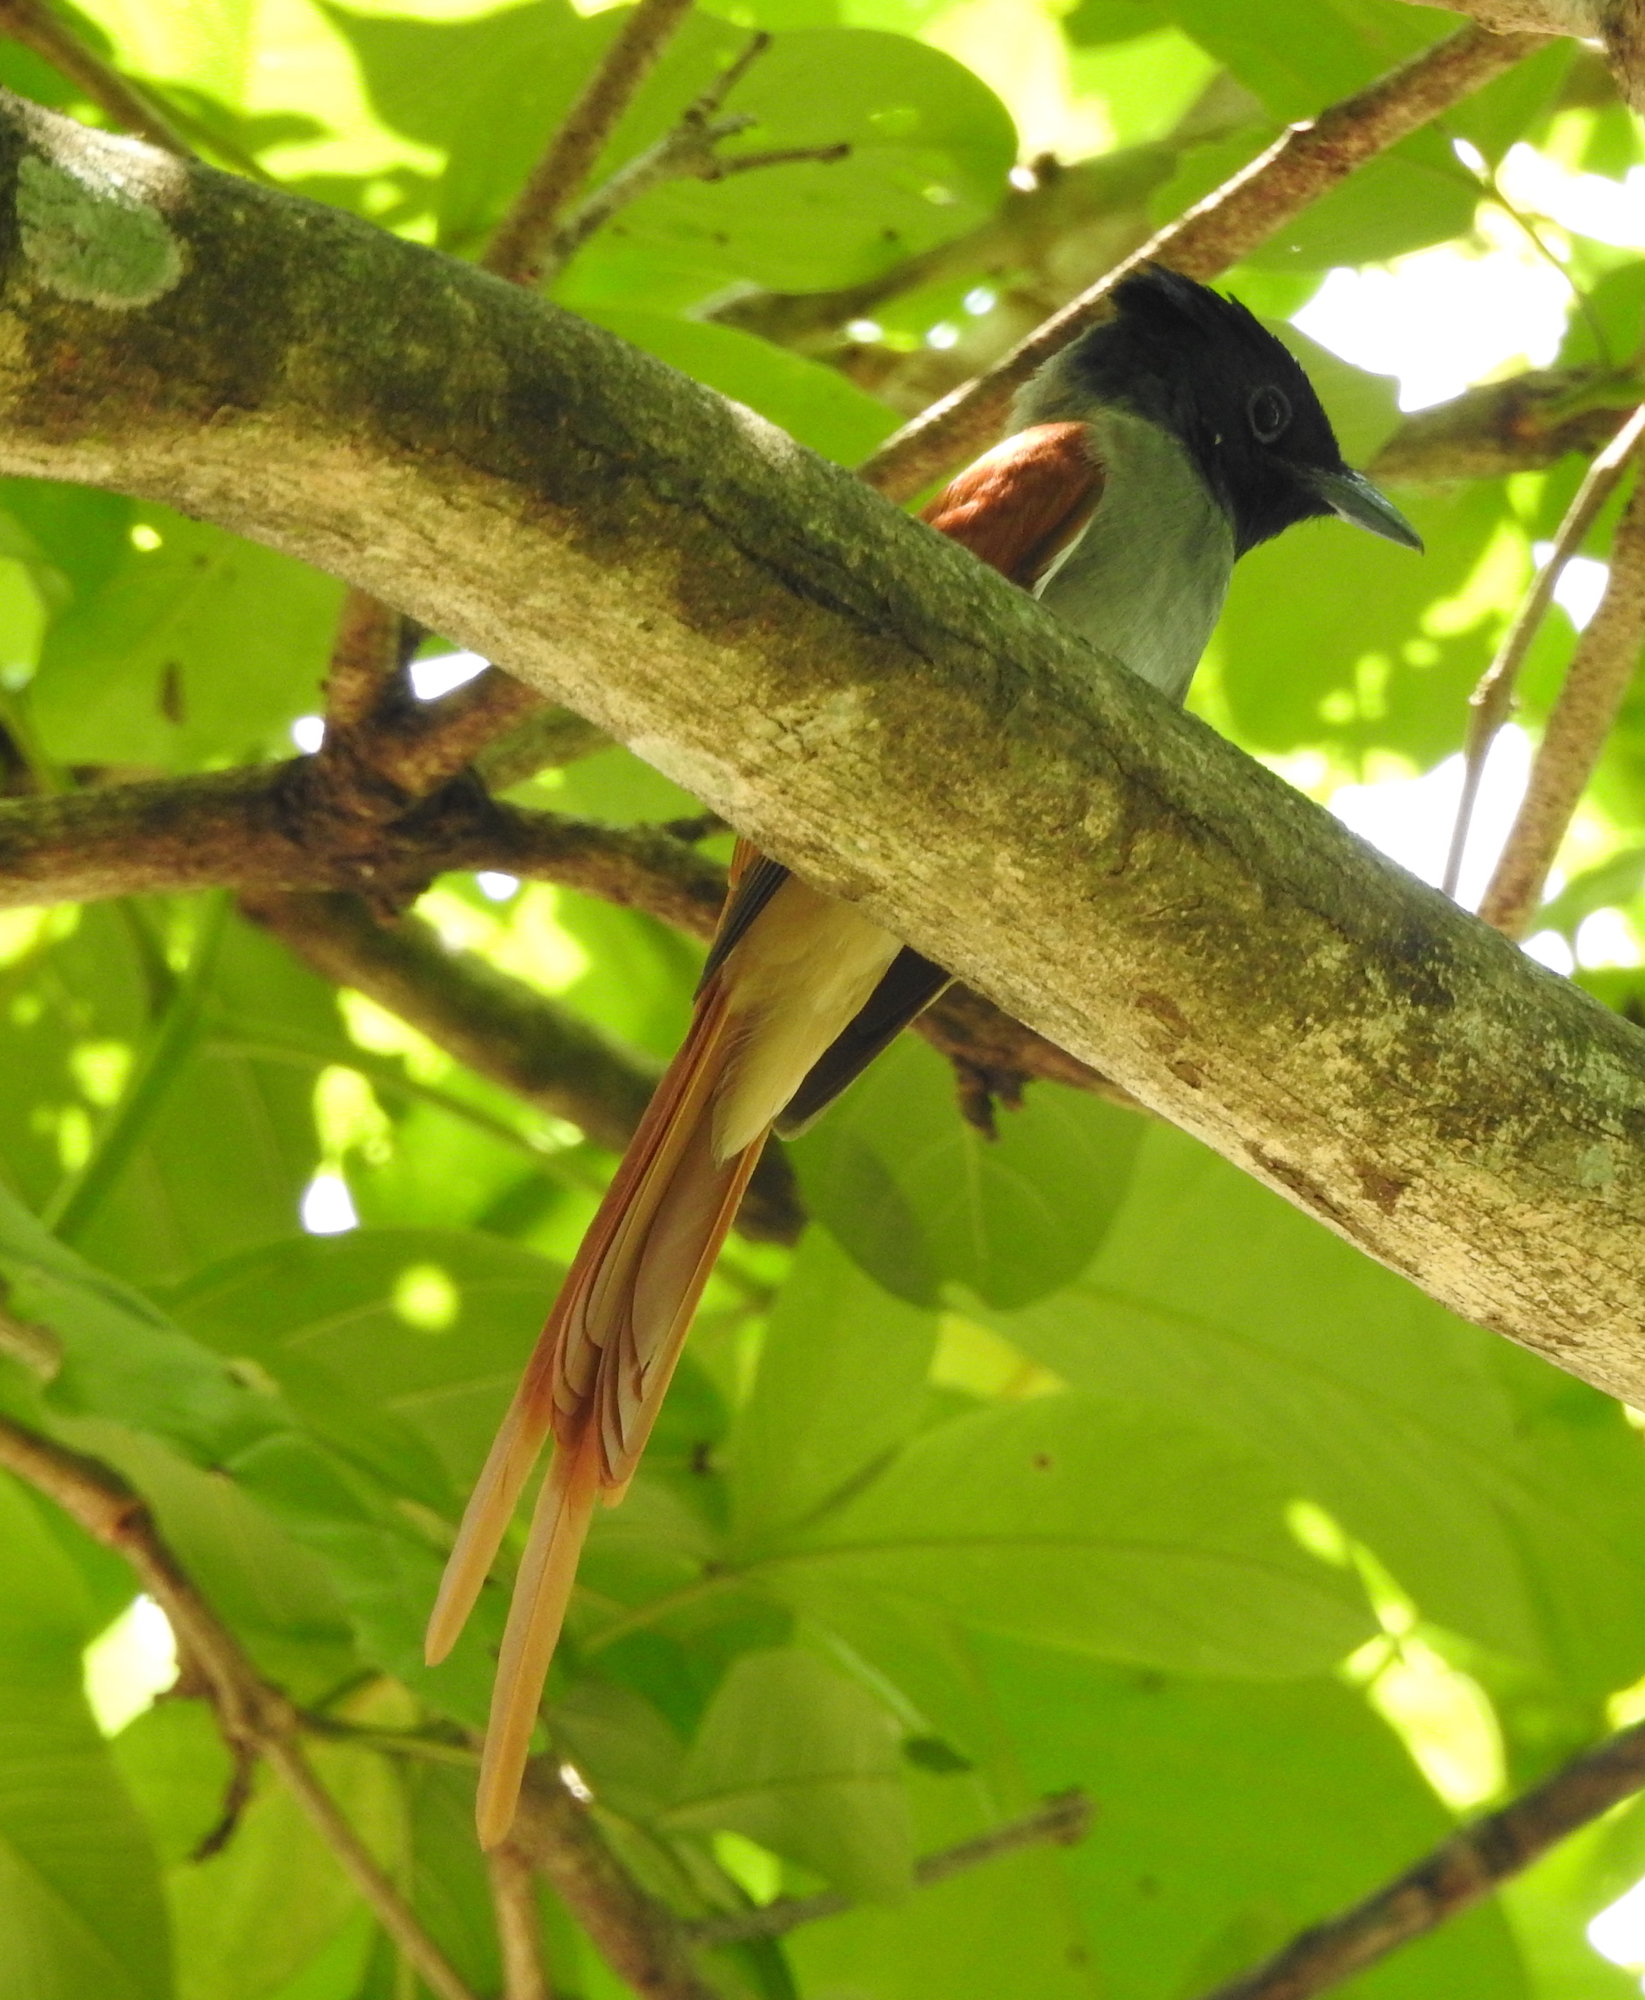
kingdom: Animalia
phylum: Chordata
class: Aves
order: Passeriformes
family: Monarchidae
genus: Terpsiphone
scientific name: Terpsiphone paradisi
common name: Indian paradise flycatcher
